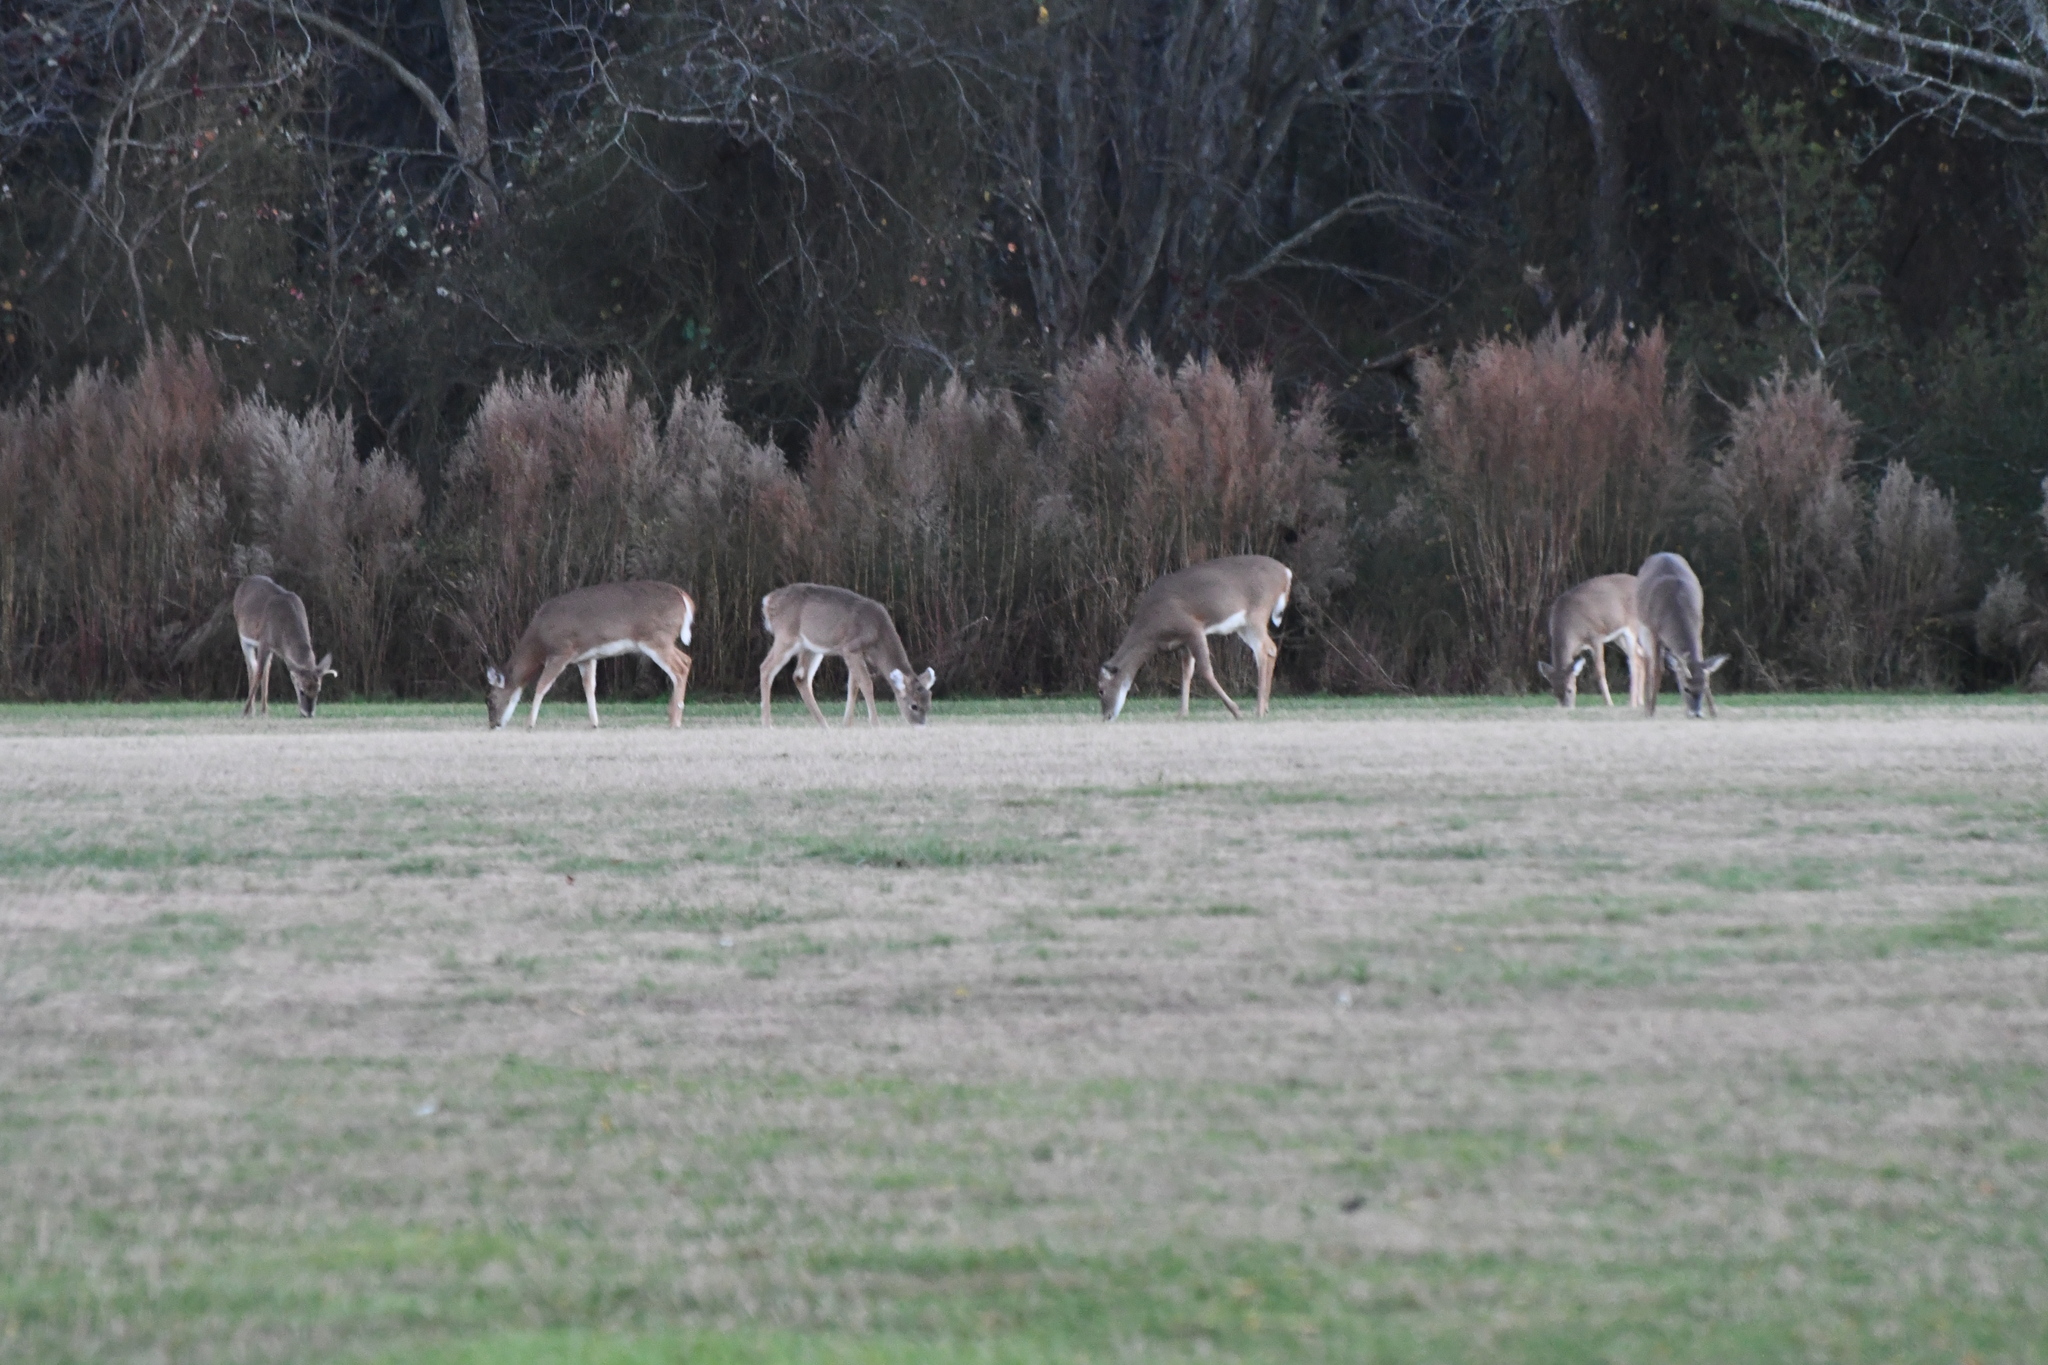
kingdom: Animalia
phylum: Chordata
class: Mammalia
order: Artiodactyla
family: Cervidae
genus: Odocoileus
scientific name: Odocoileus virginianus
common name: White-tailed deer
